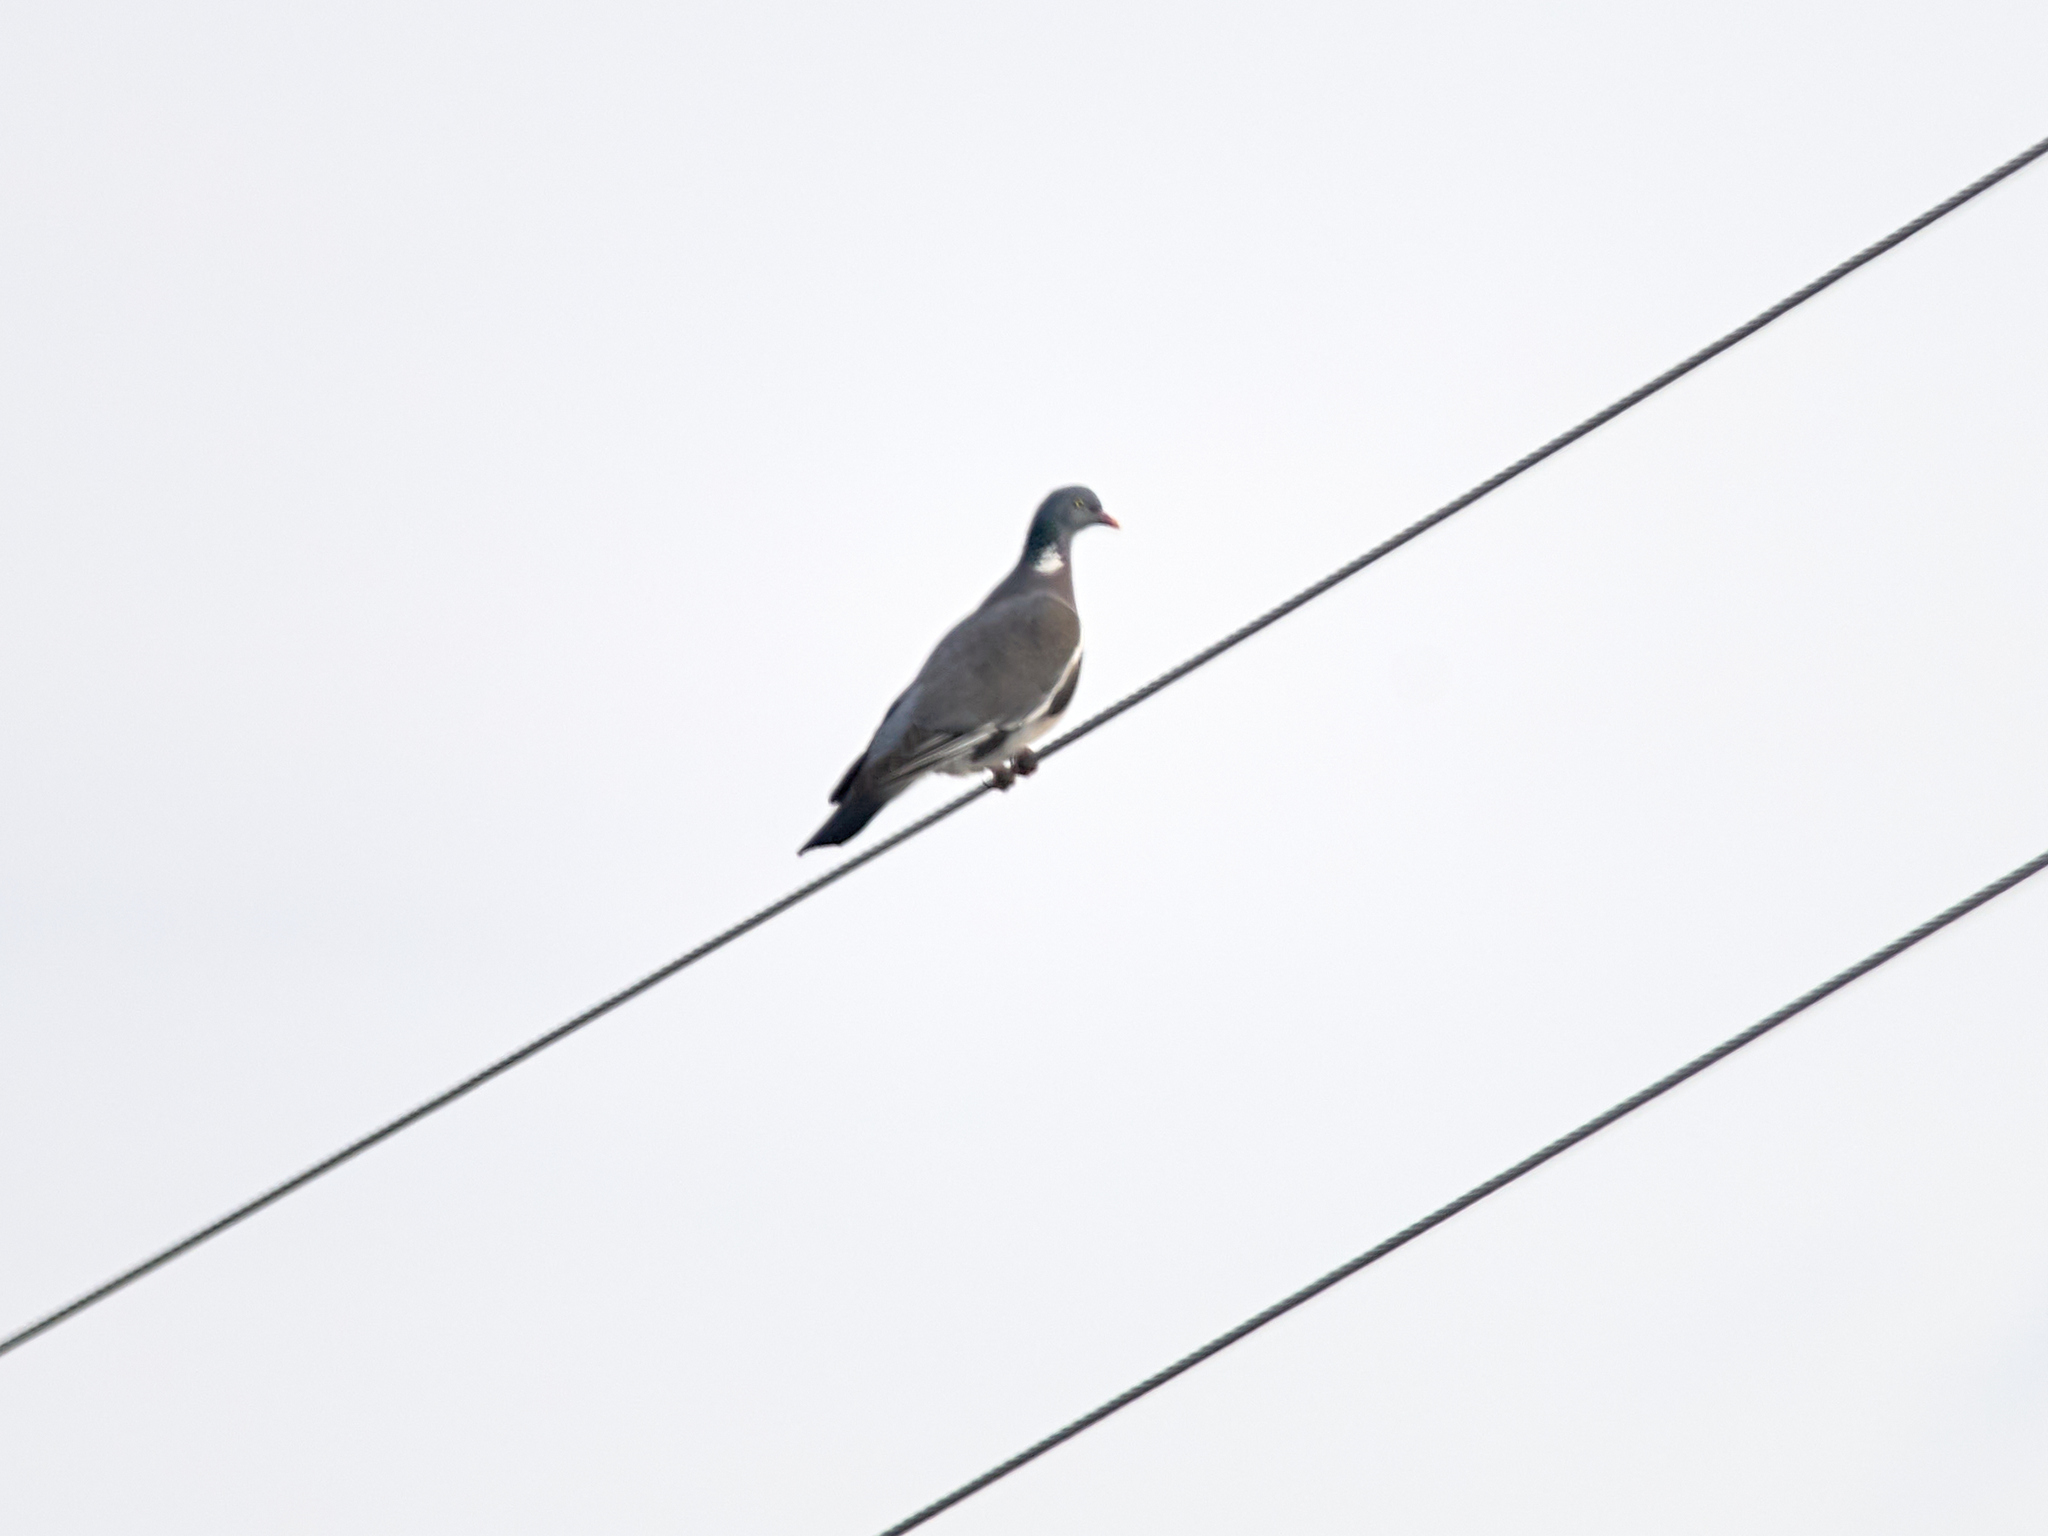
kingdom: Animalia
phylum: Chordata
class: Aves
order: Columbiformes
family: Columbidae
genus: Columba
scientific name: Columba palumbus
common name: Common wood pigeon
